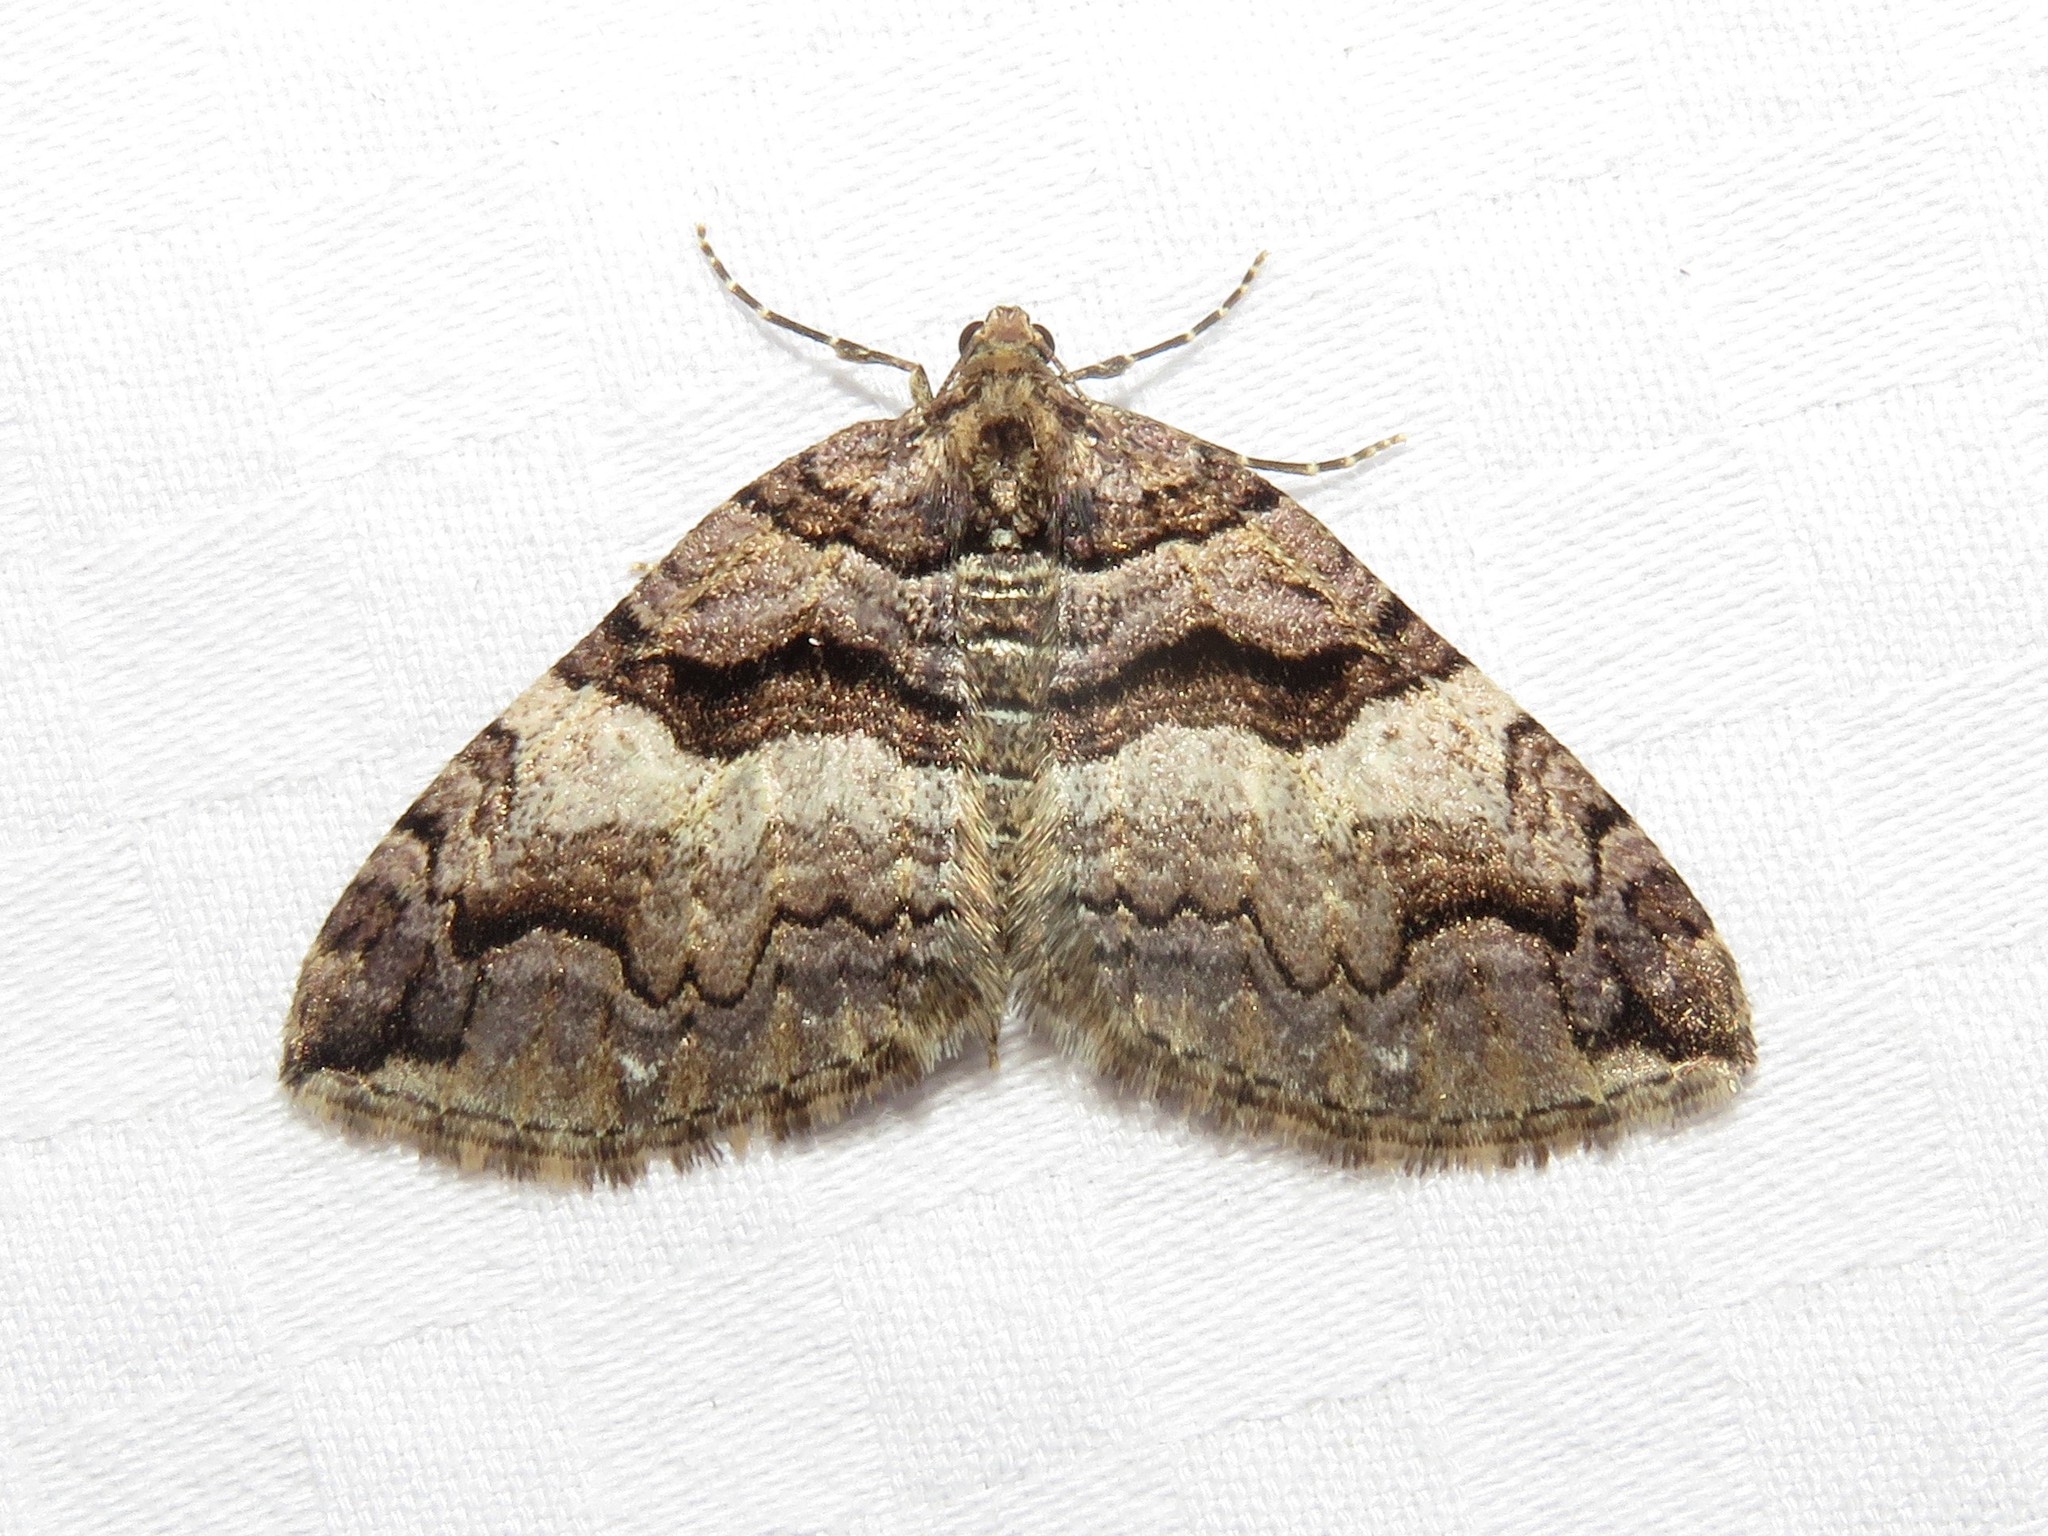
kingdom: Animalia
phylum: Arthropoda
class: Insecta
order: Lepidoptera
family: Geometridae
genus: Anticlea
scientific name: Anticlea vasiliata
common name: Variable carpet
